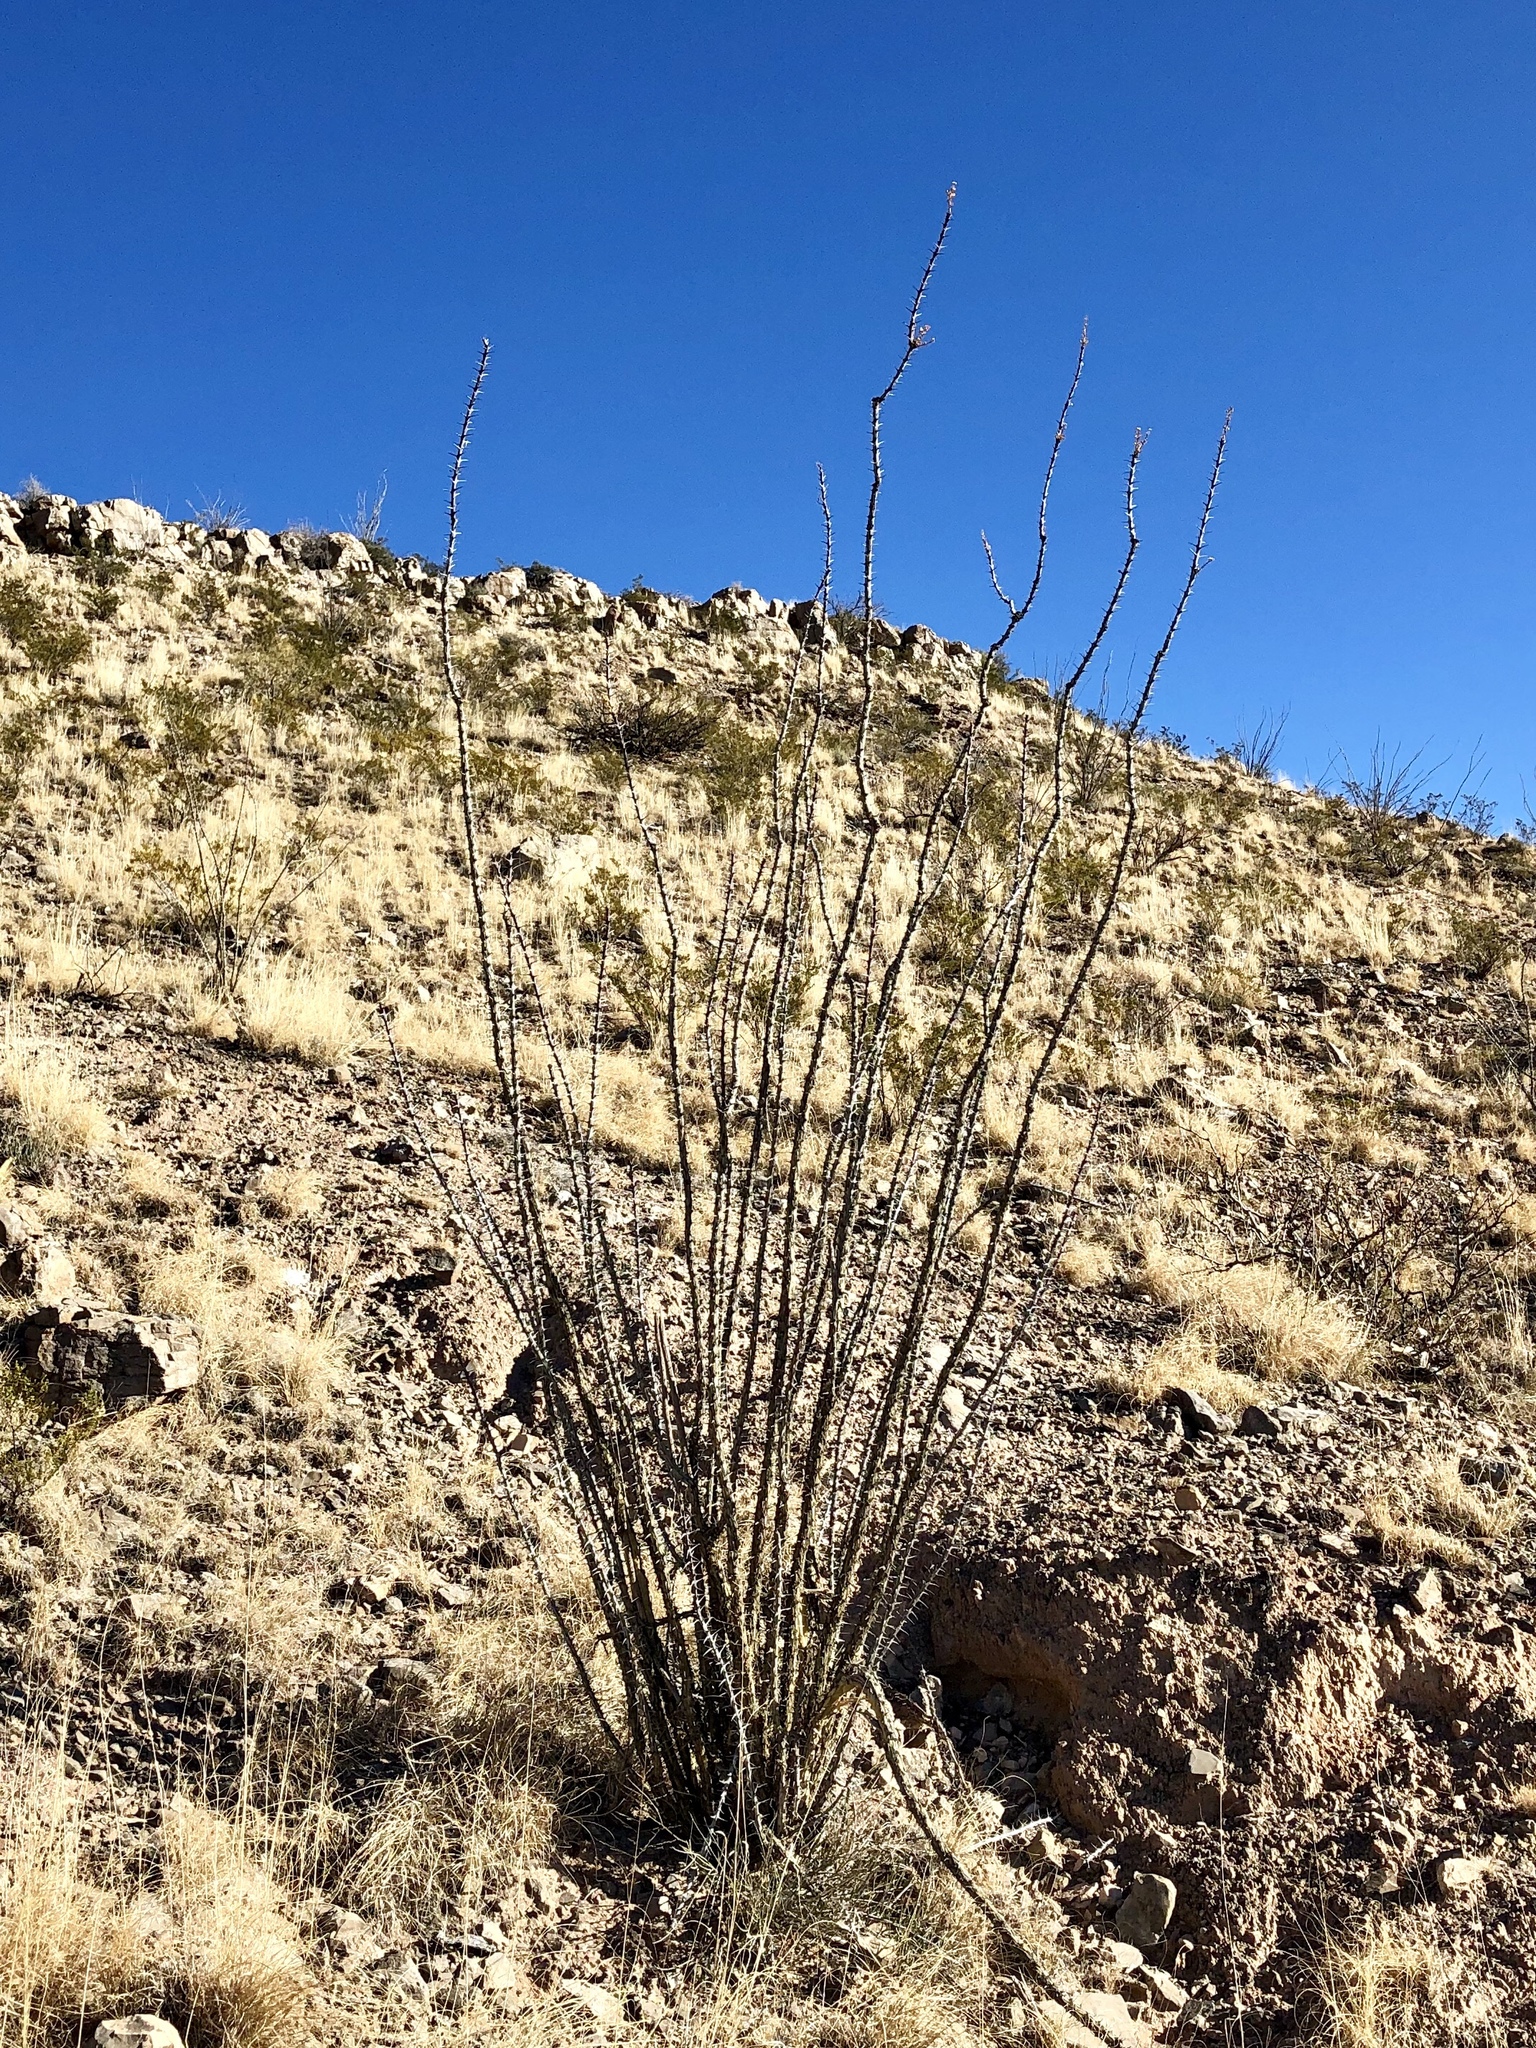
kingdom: Plantae
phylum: Tracheophyta
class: Magnoliopsida
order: Ericales
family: Fouquieriaceae
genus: Fouquieria
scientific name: Fouquieria splendens
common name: Vine-cactus
